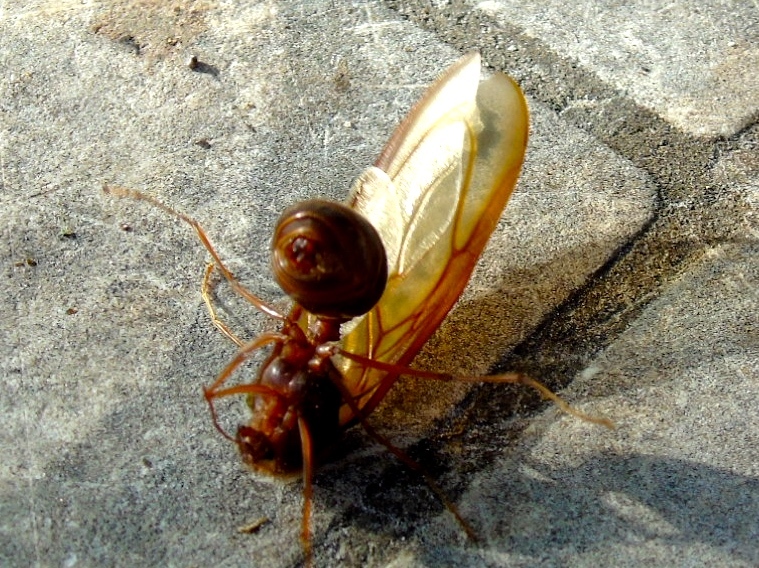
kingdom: Animalia
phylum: Arthropoda
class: Insecta
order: Hymenoptera
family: Formicidae
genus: Atta
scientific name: Atta mexicana
